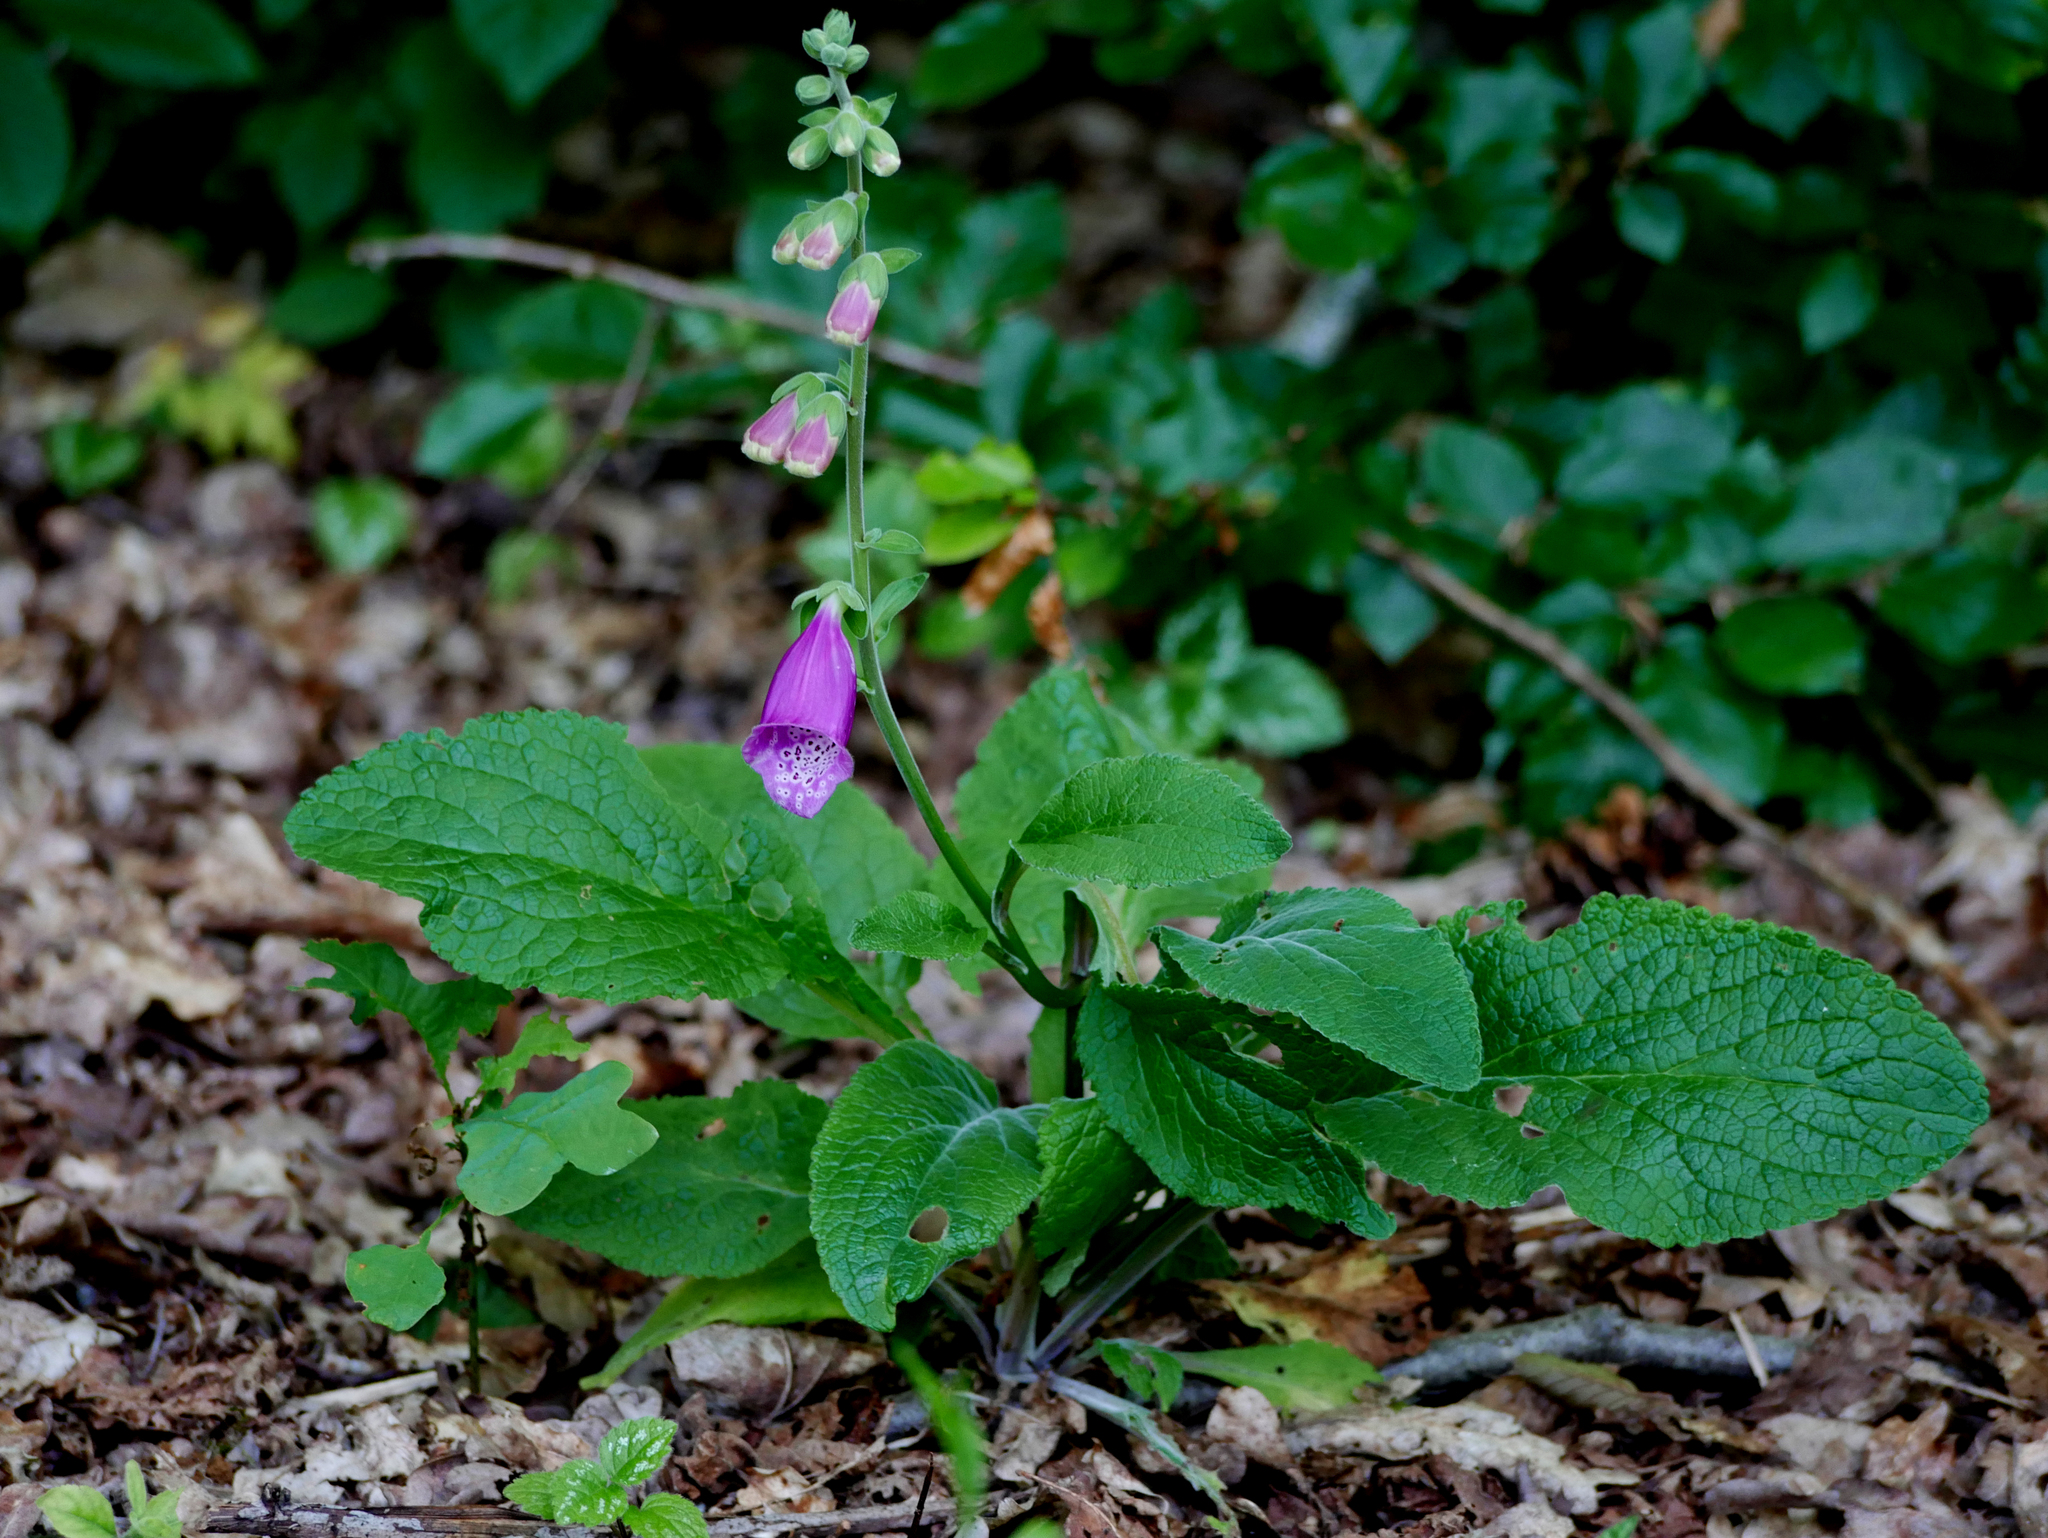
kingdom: Plantae
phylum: Tracheophyta
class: Magnoliopsida
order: Lamiales
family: Plantaginaceae
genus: Digitalis
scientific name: Digitalis purpurea
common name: Foxglove
